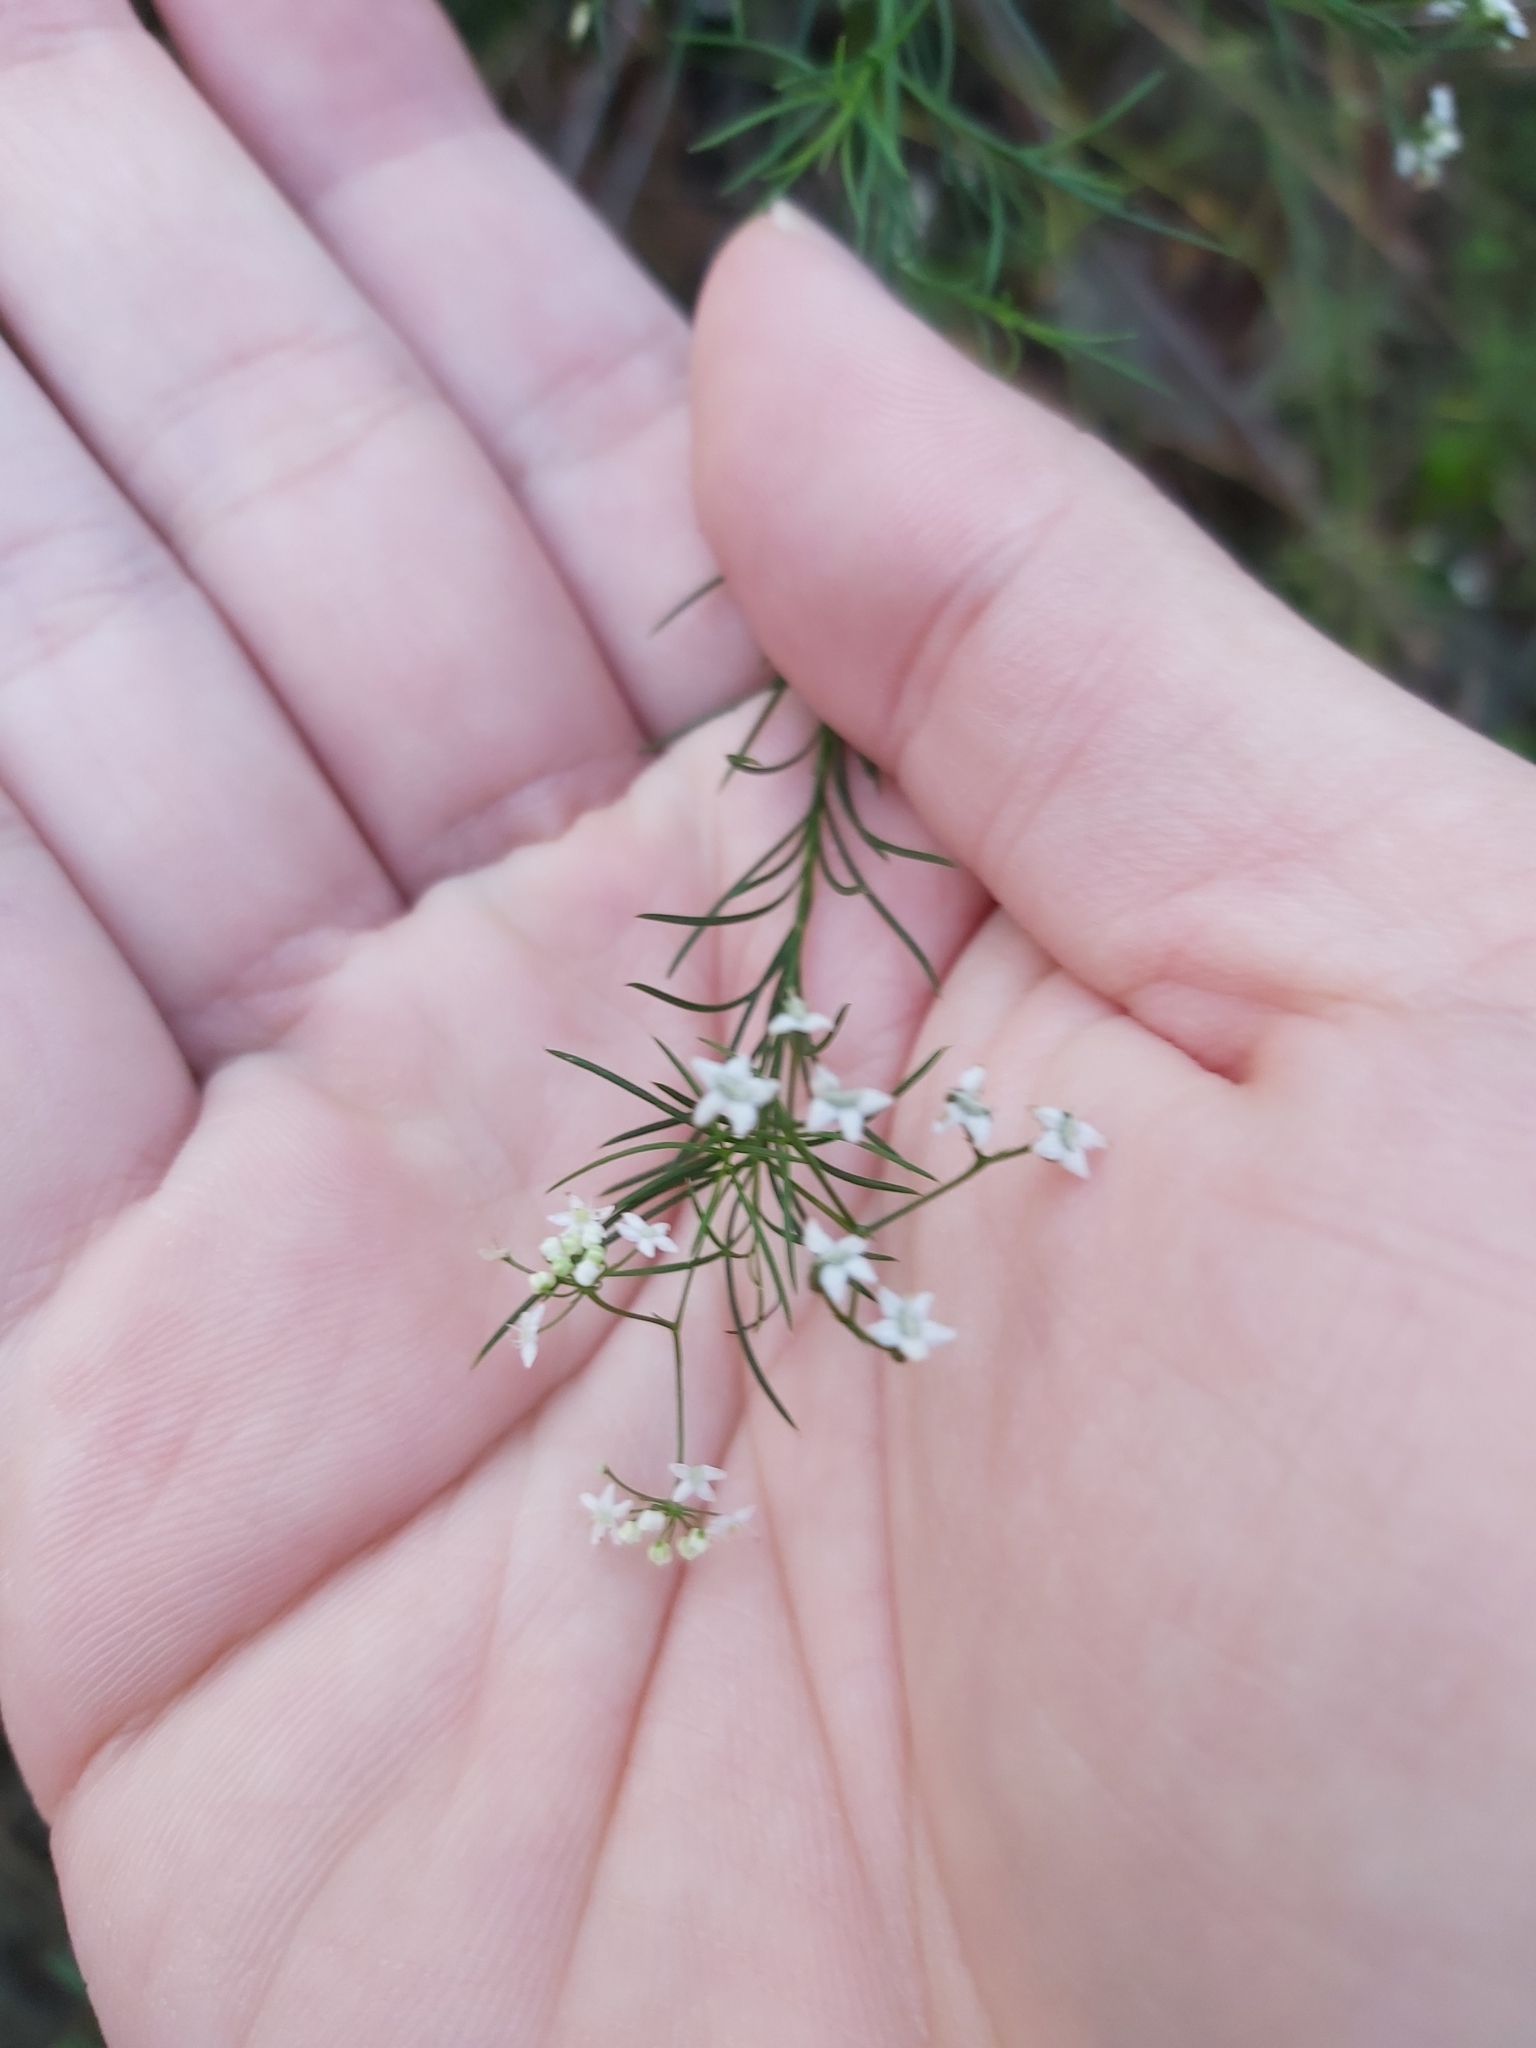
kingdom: Plantae
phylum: Tracheophyta
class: Magnoliopsida
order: Apiales
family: Apiaceae
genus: Platysace
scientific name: Platysace linearifolia
